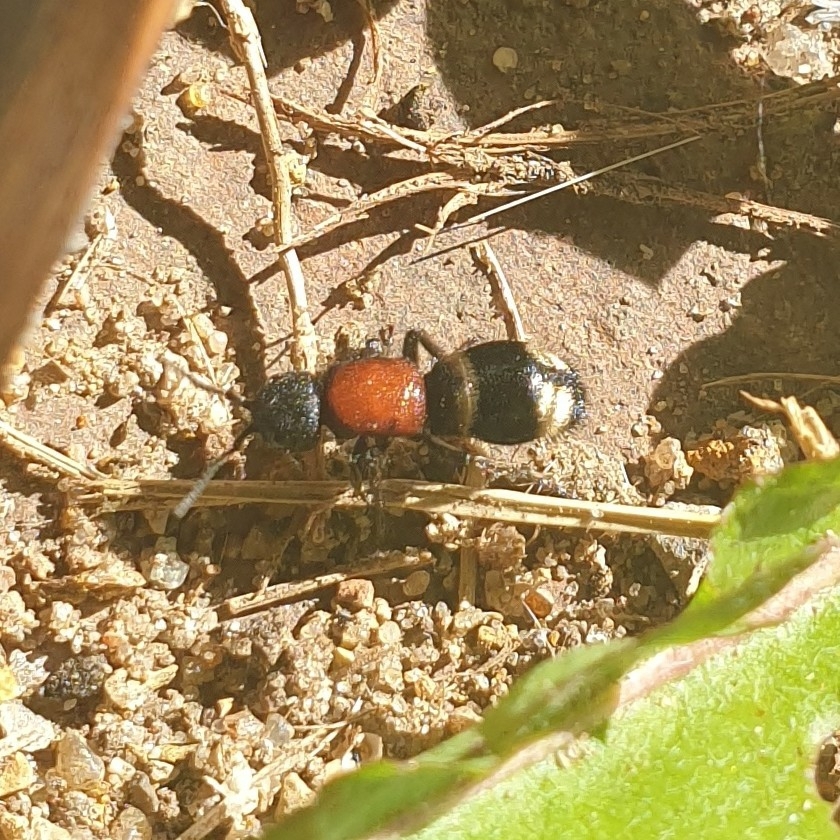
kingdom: Animalia
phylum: Arthropoda
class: Insecta
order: Hymenoptera
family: Mutillidae
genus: Mutilla
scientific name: Mutilla europaea
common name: Large velvet ant
